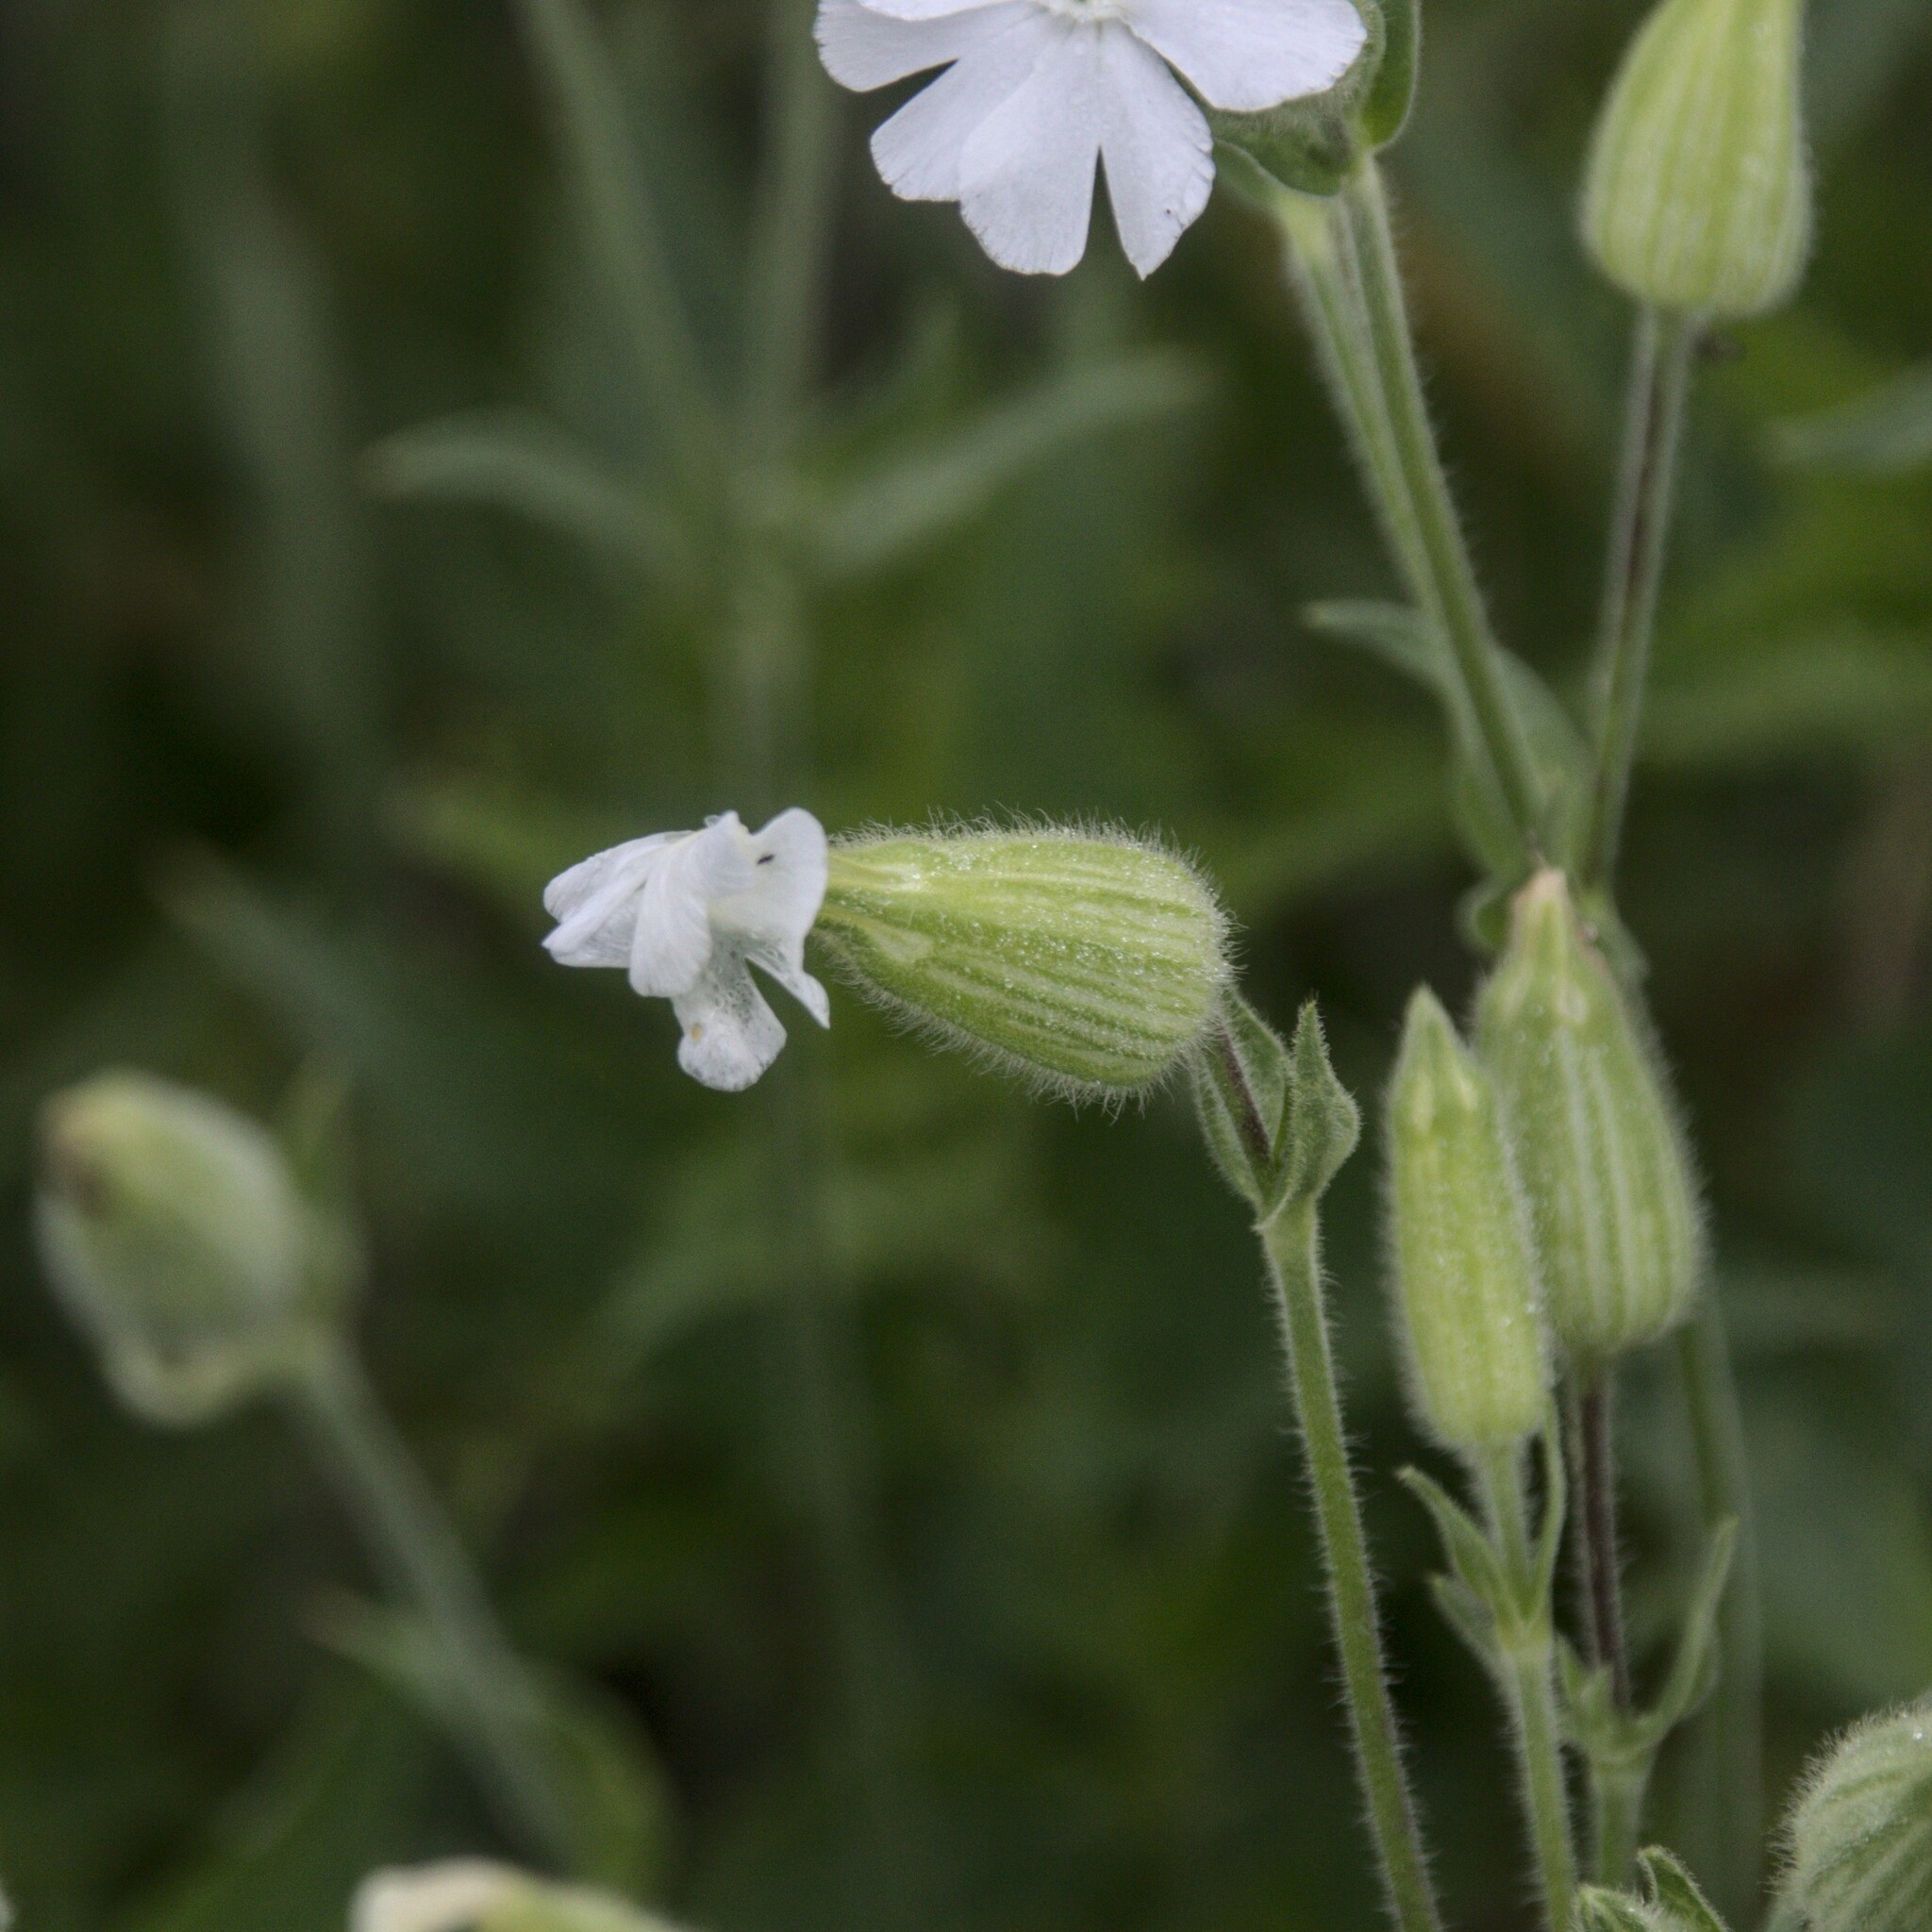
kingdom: Plantae
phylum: Tracheophyta
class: Magnoliopsida
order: Caryophyllales
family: Caryophyllaceae
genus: Silene
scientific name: Silene latifolia
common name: White campion
